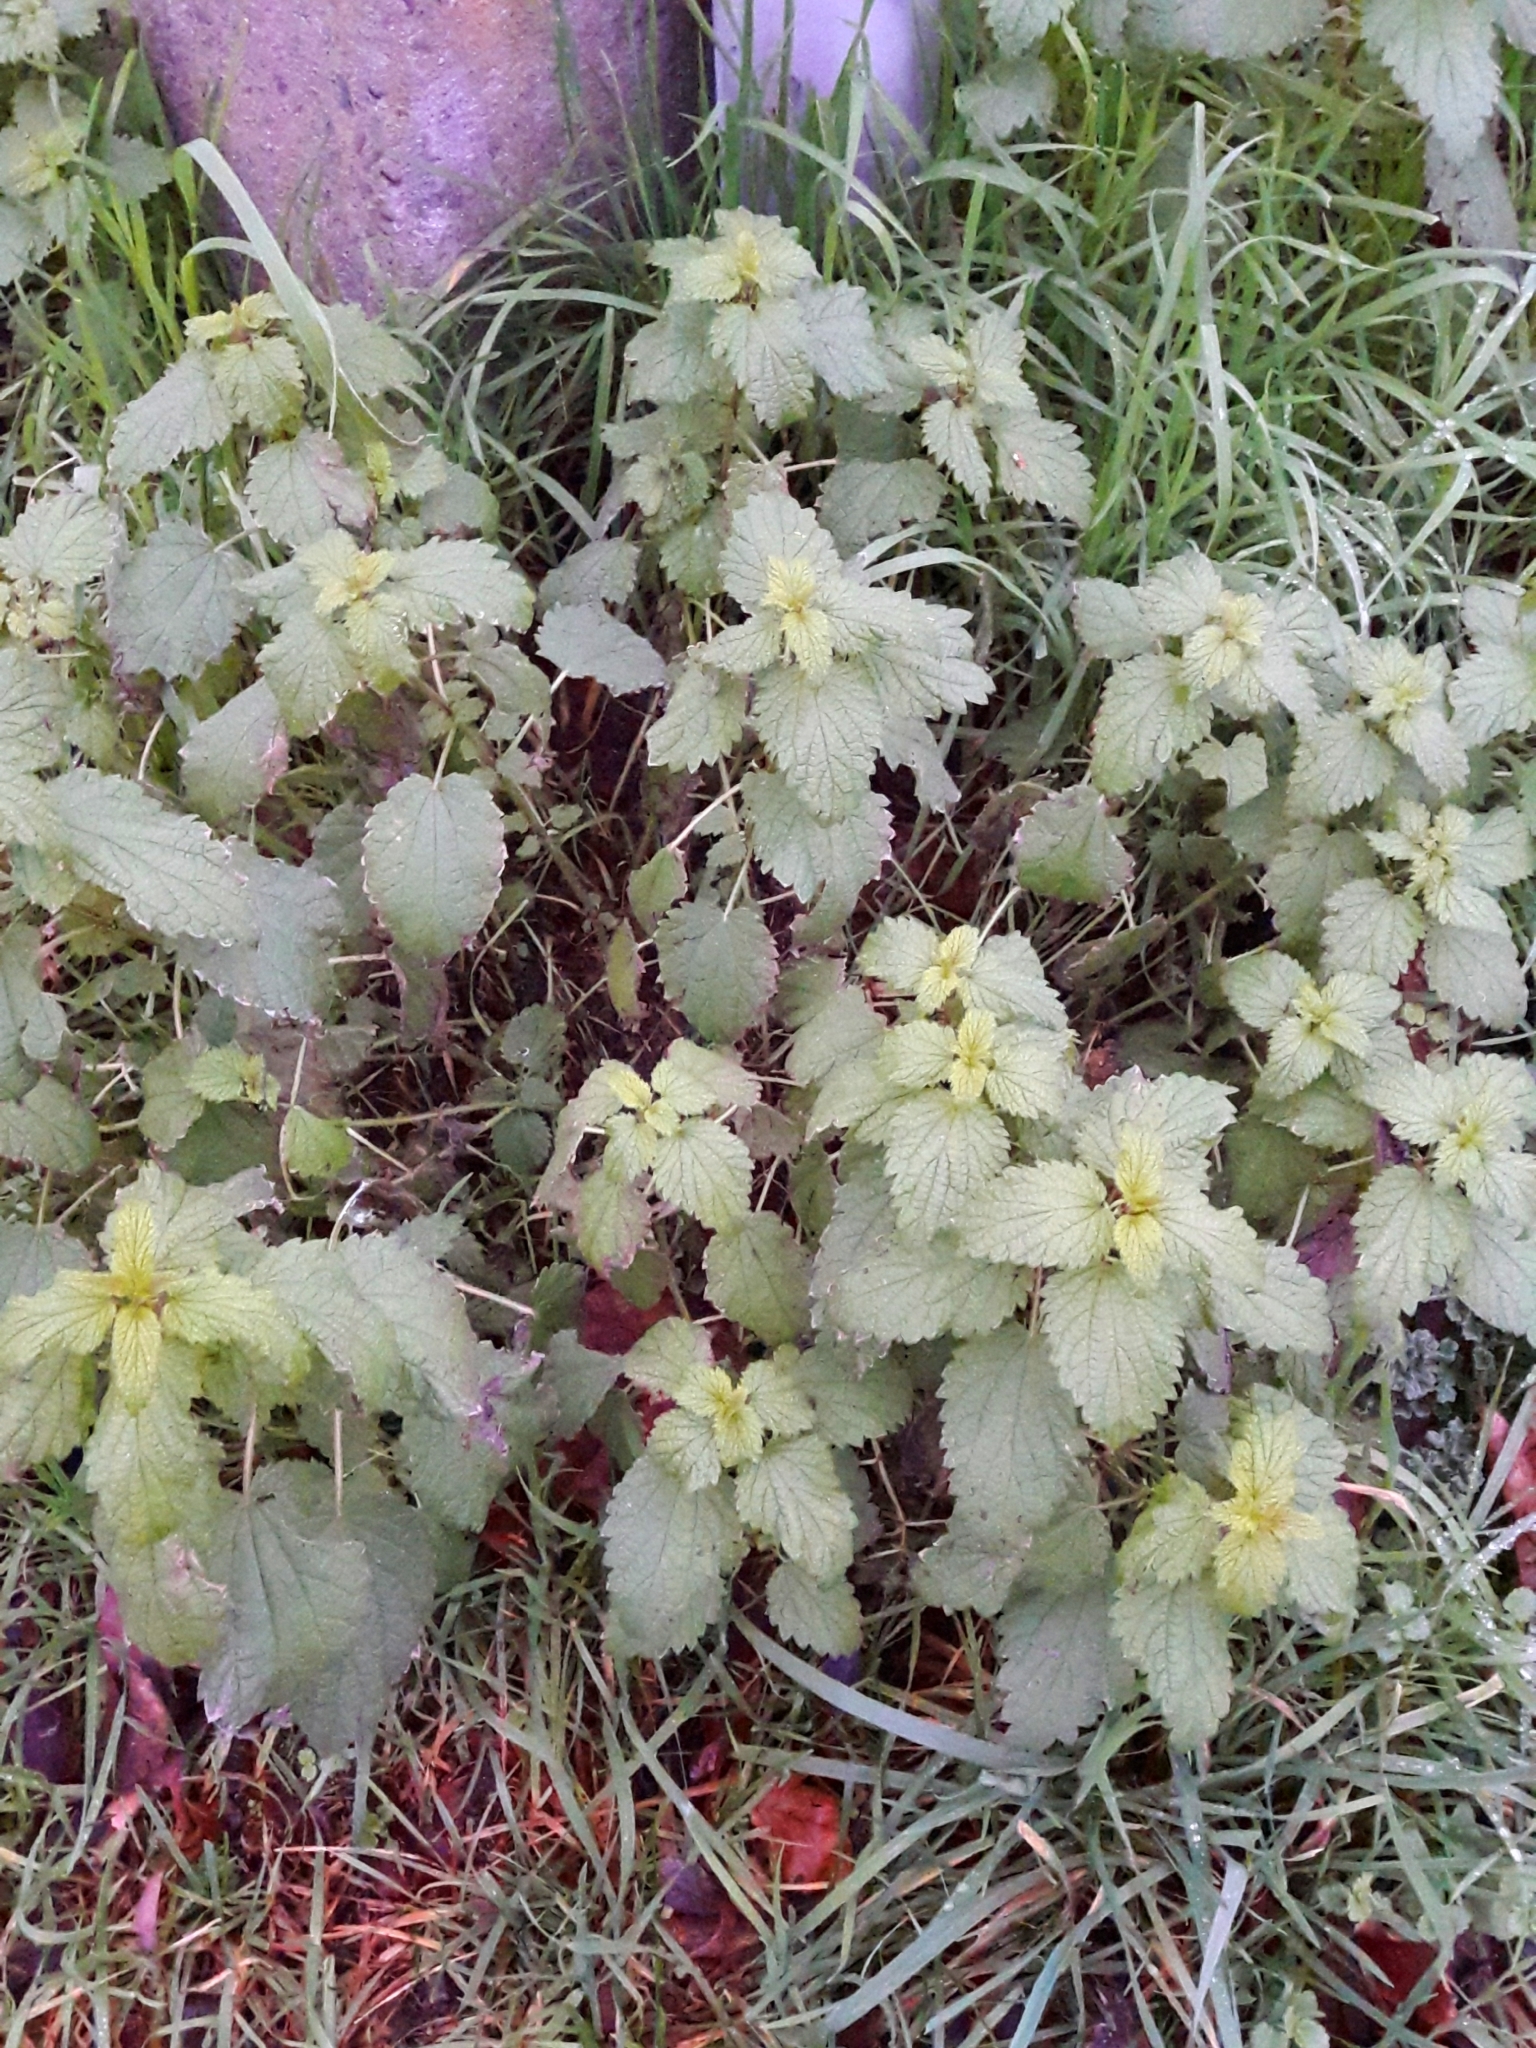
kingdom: Plantae
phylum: Tracheophyta
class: Magnoliopsida
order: Rosales
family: Urticaceae
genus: Urtica
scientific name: Urtica dioica
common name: Common nettle
